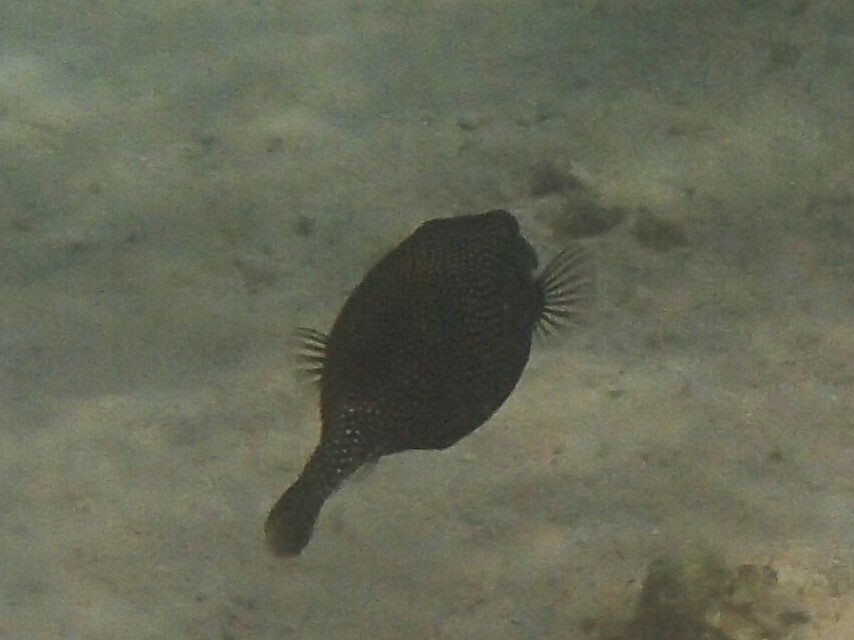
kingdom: Animalia
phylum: Chordata
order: Tetraodontiformes
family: Ostraciidae
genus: Ostracion
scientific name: Ostracion meleagris
